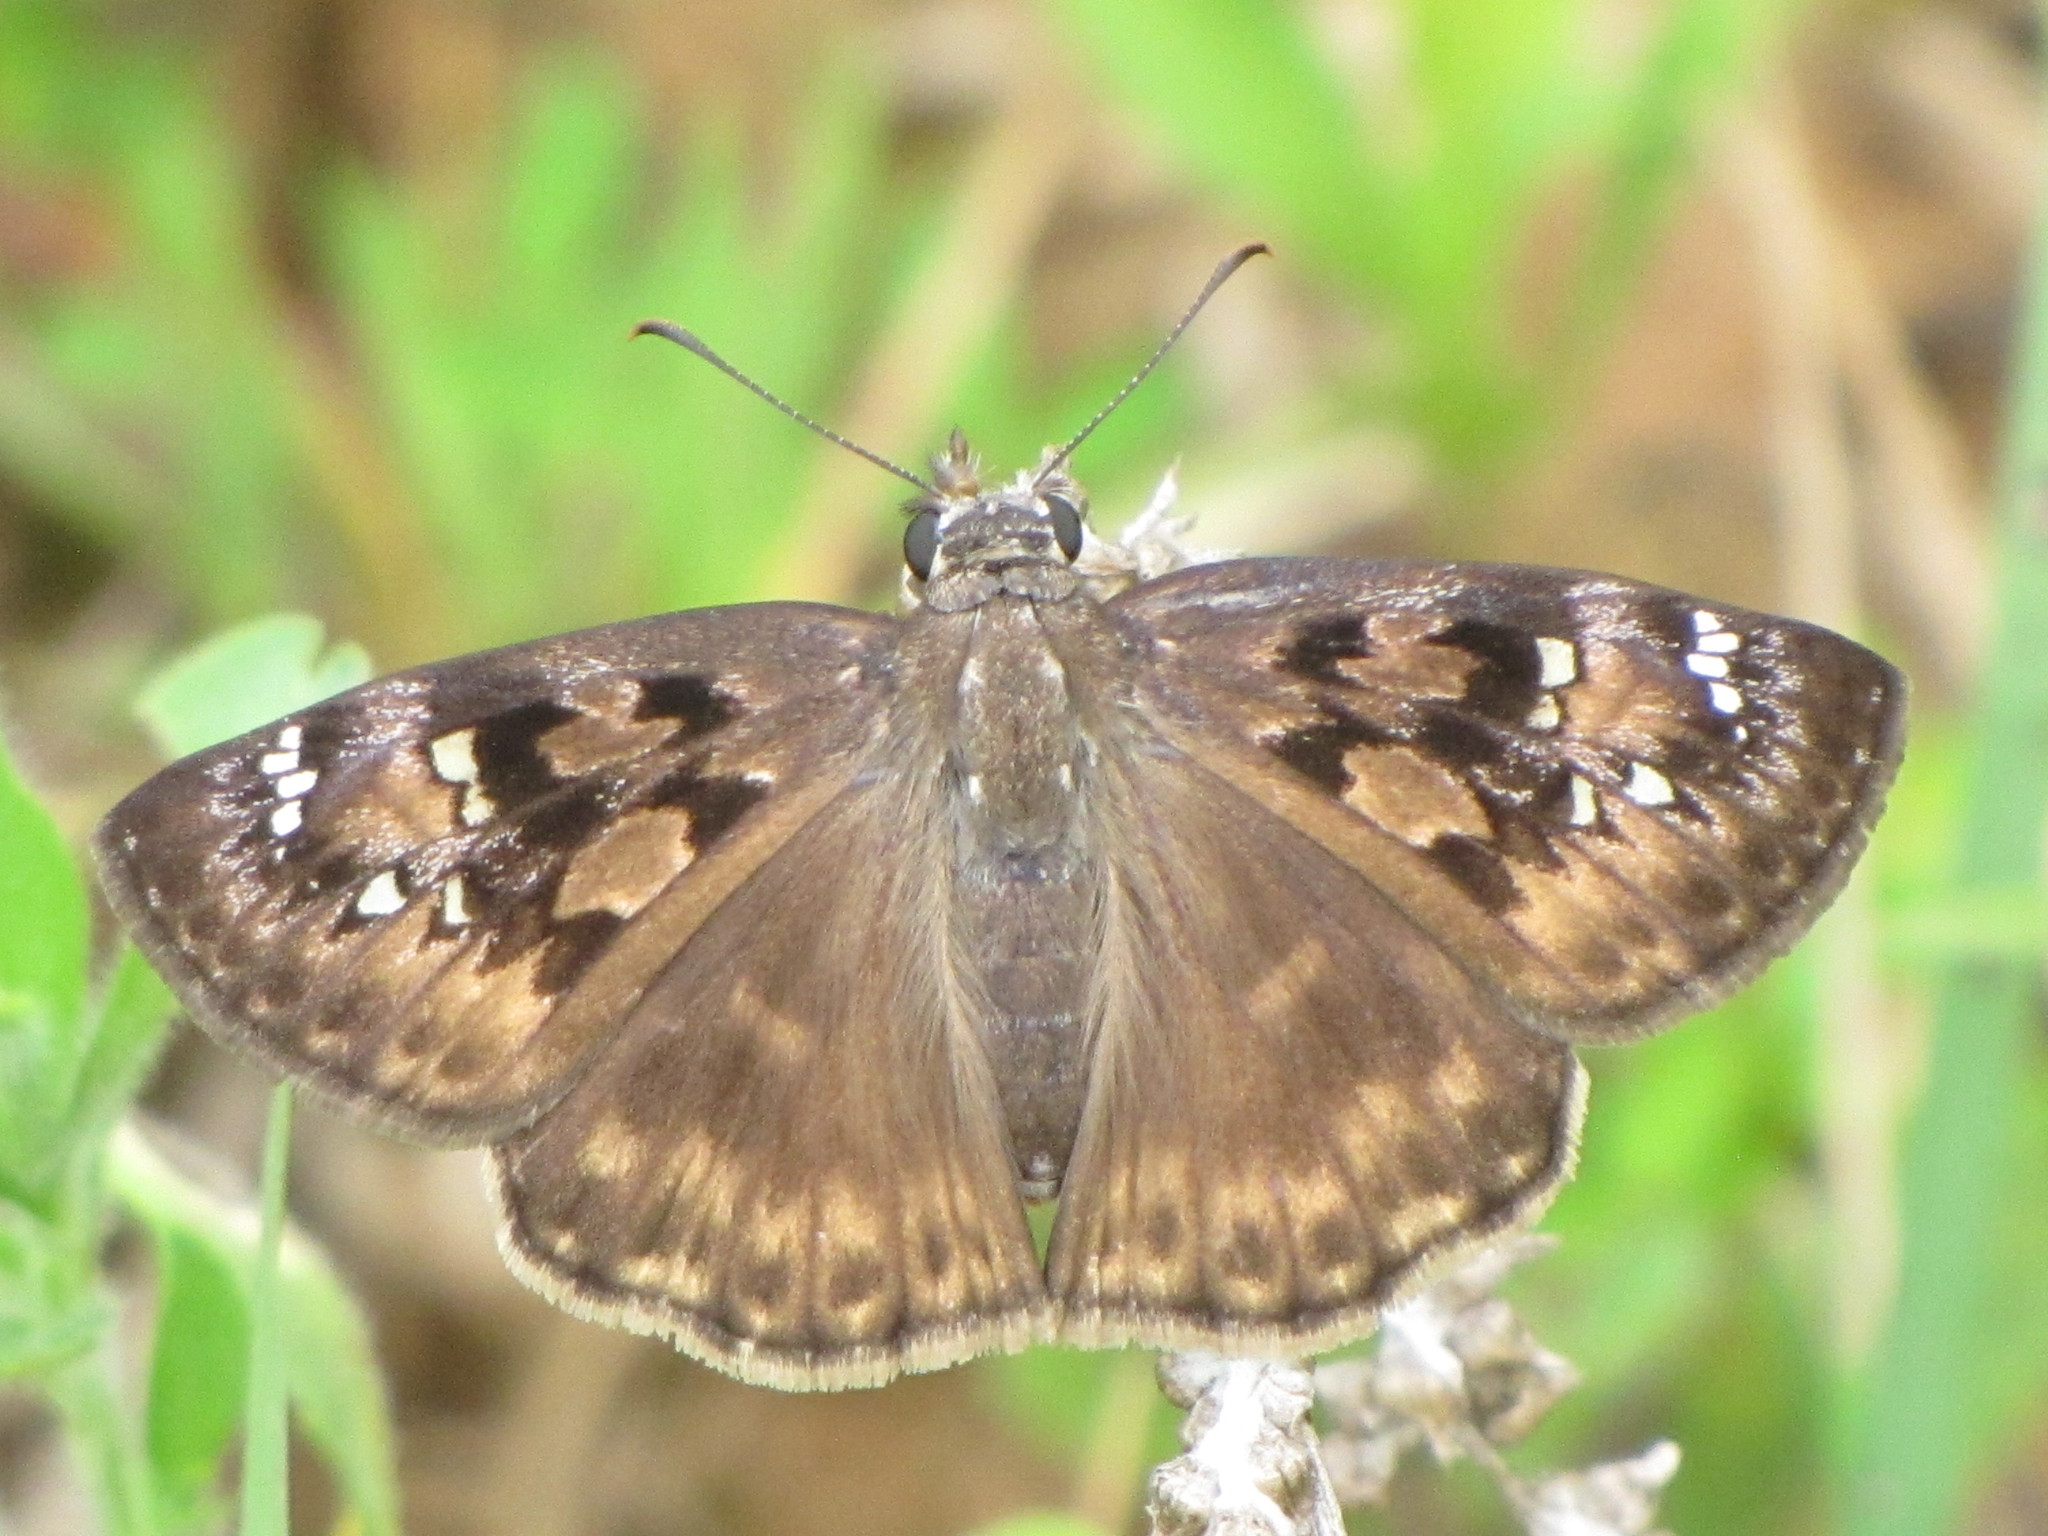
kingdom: Animalia
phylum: Arthropoda
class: Insecta
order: Lepidoptera
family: Hesperiidae
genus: Erynnis
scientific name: Erynnis horatius
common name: Horace's duskywing
